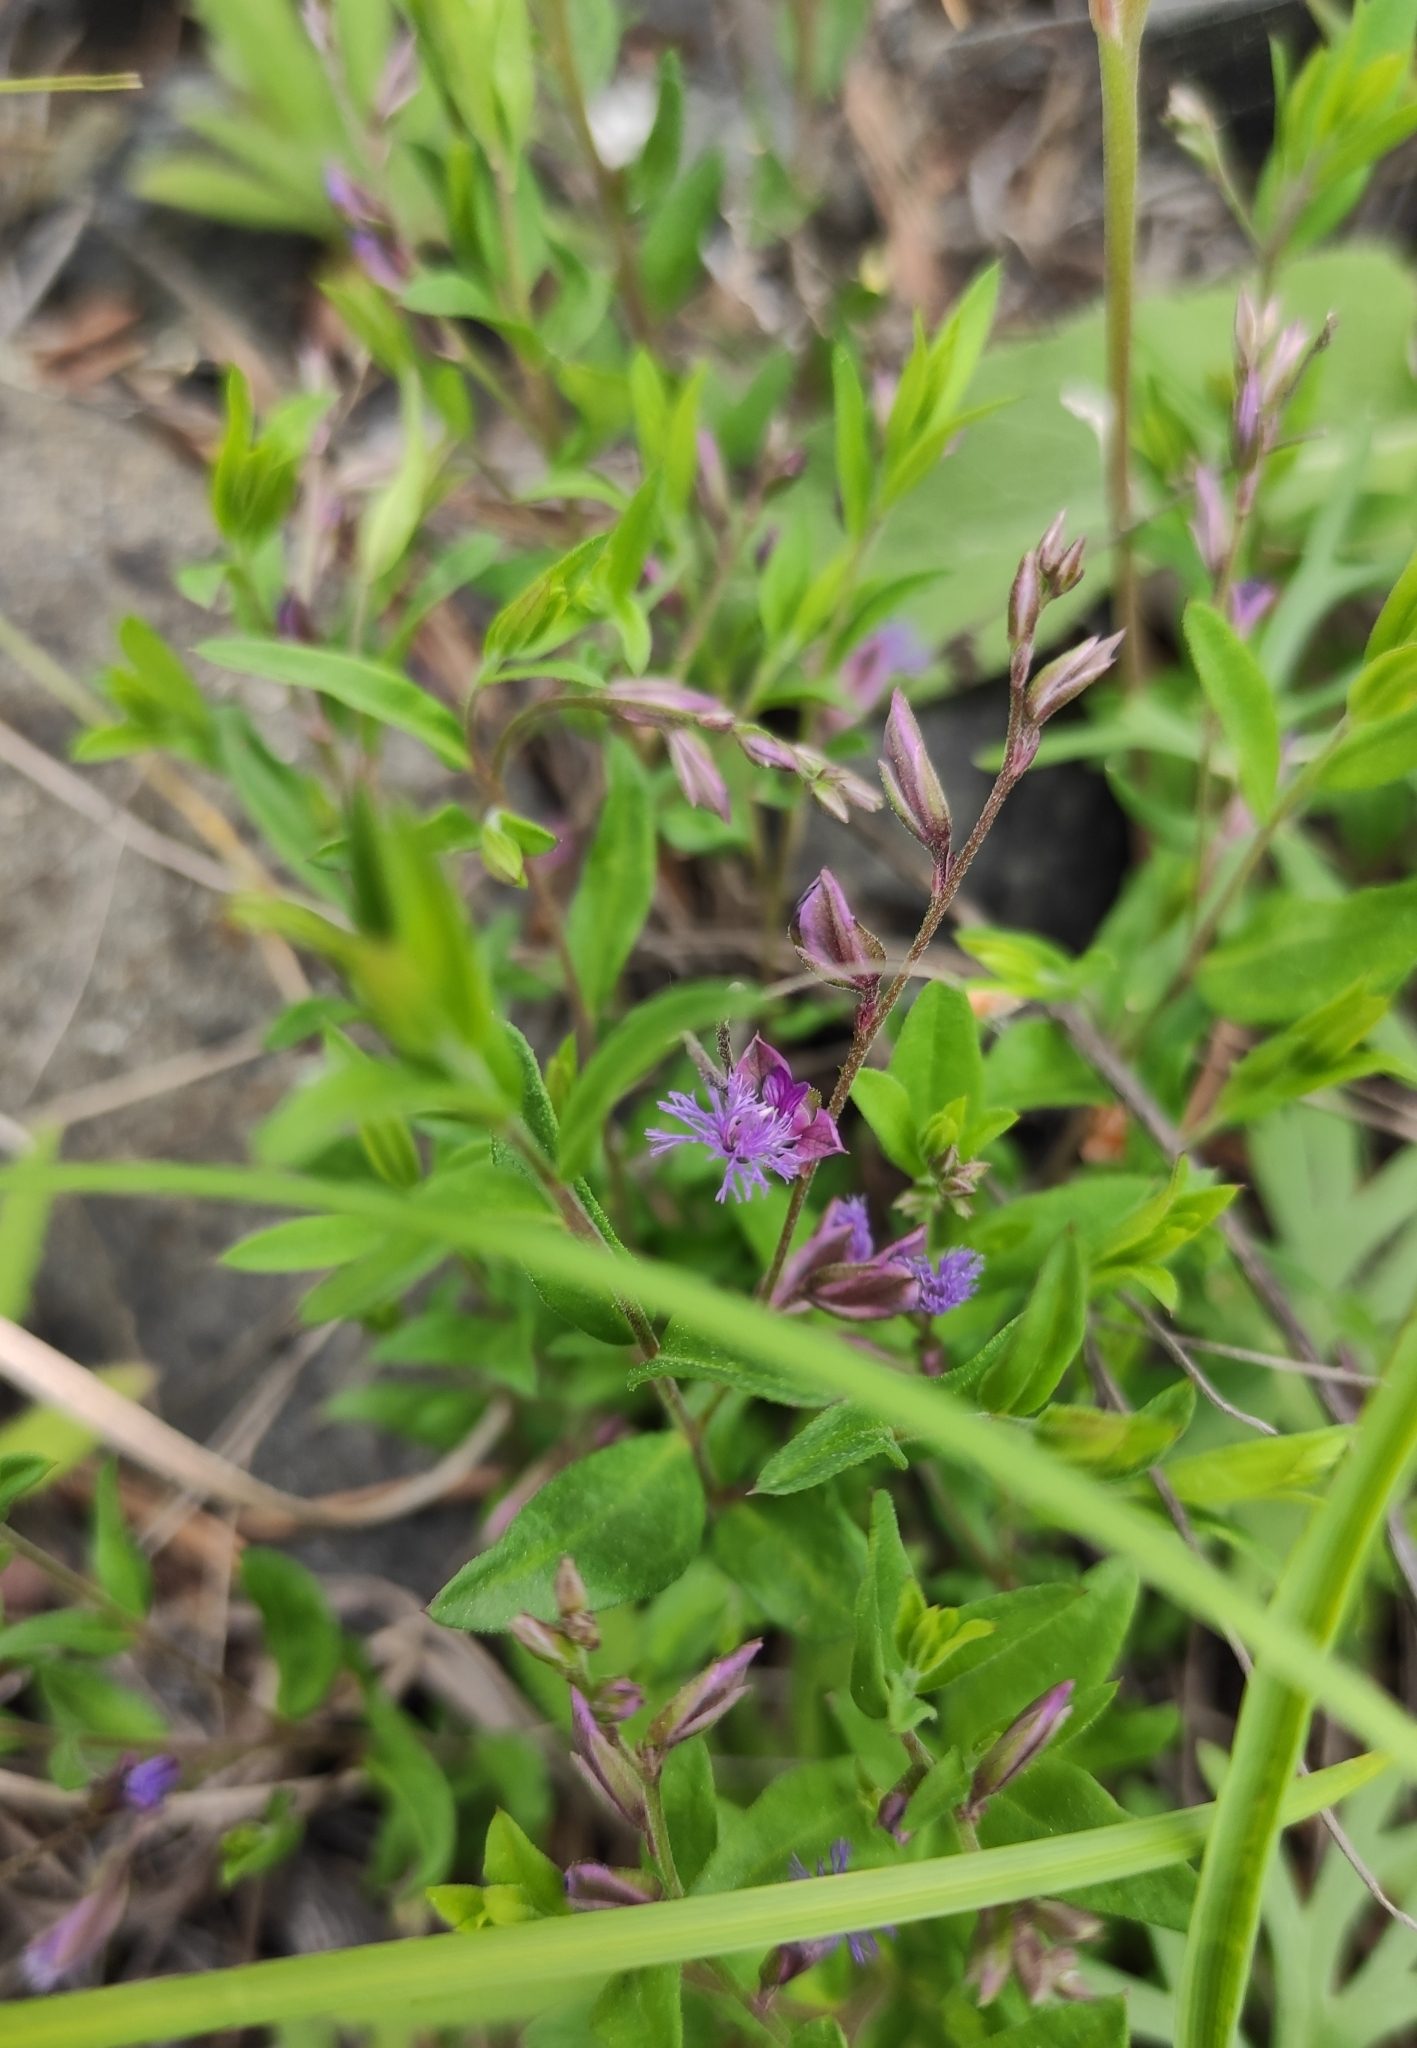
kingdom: Plantae
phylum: Tracheophyta
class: Magnoliopsida
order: Fabales
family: Polygalaceae
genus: Polygala
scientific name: Polygala sibirica
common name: Siberian polygala
